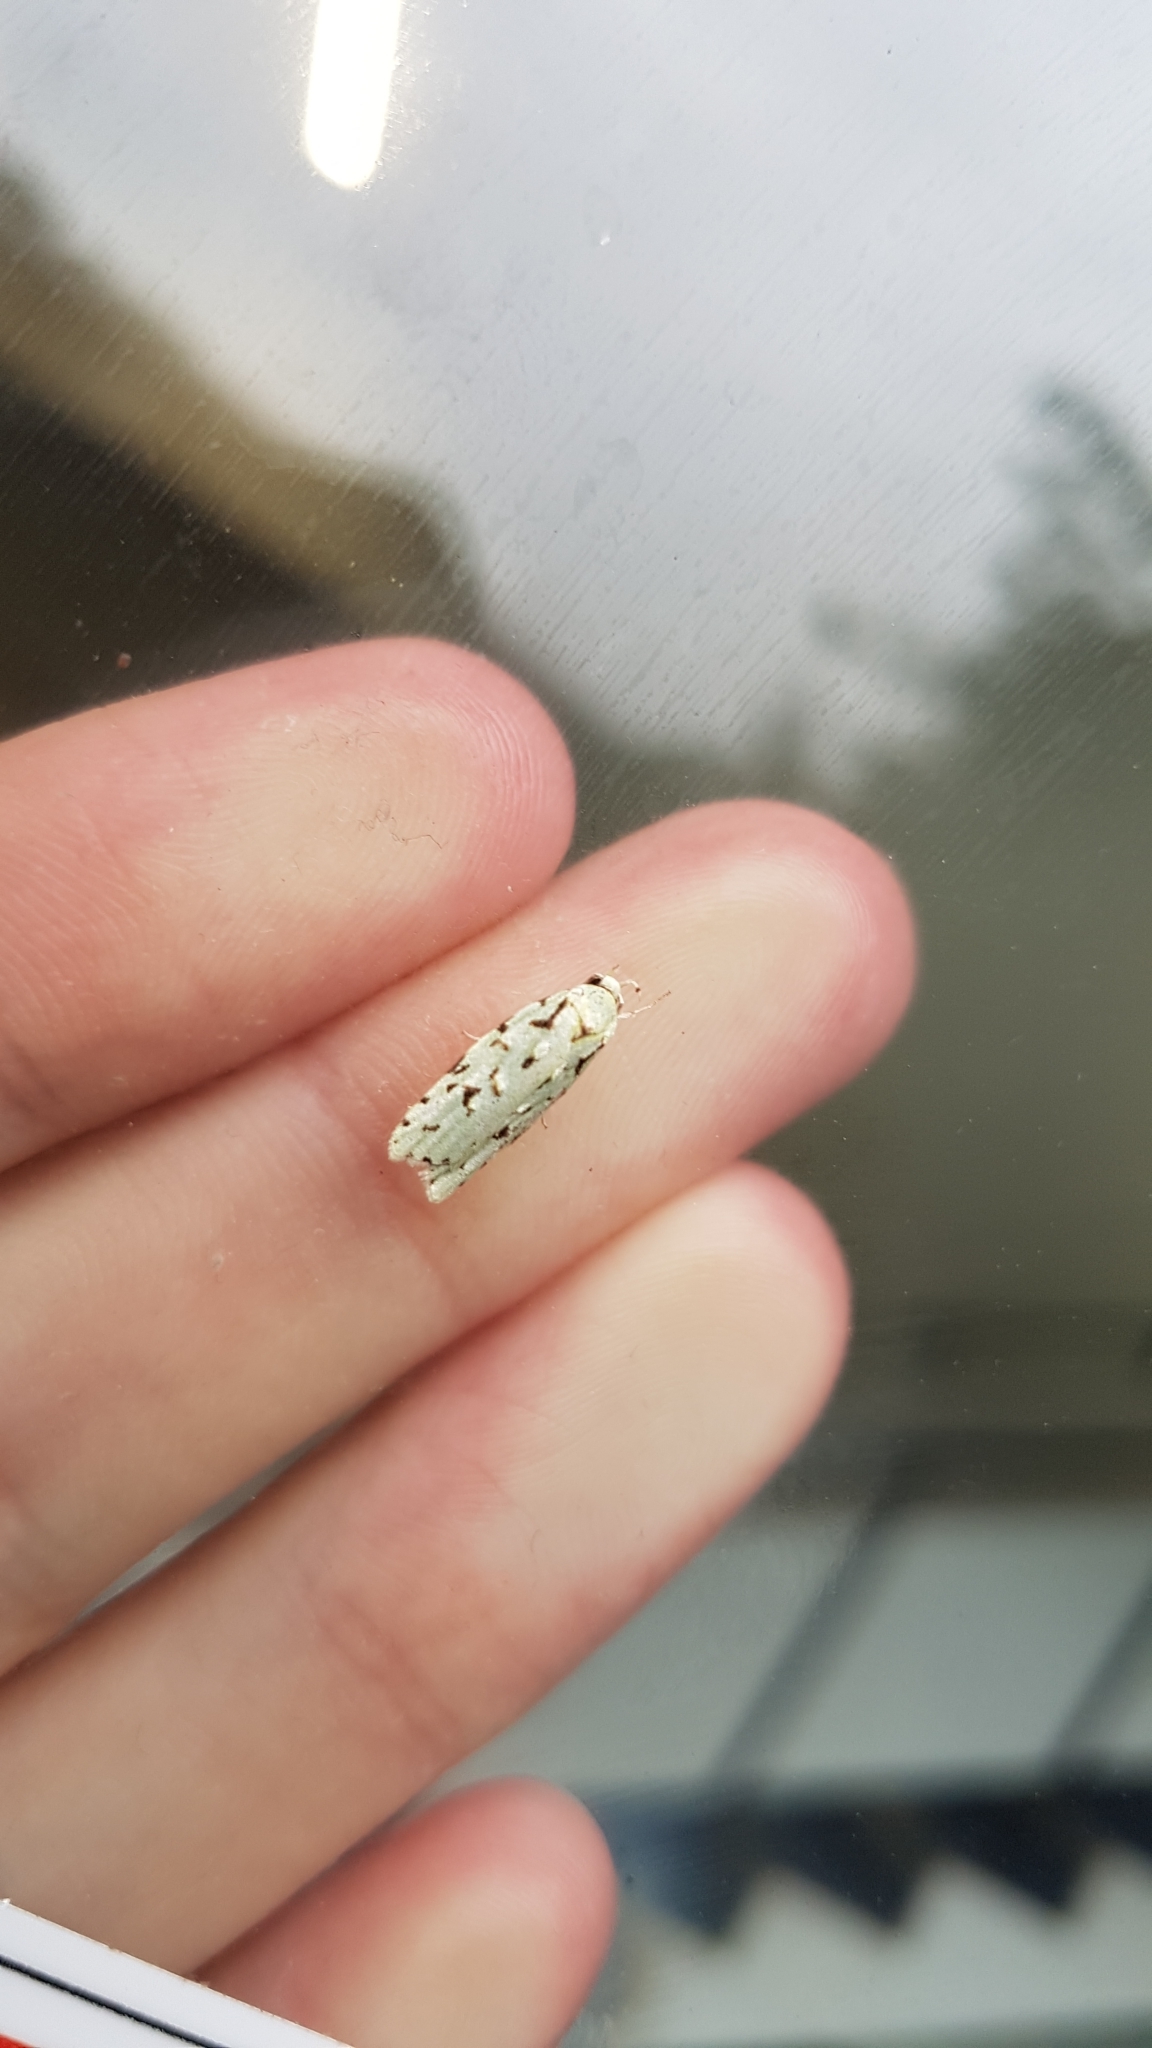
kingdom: Animalia
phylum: Arthropoda
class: Insecta
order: Lepidoptera
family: Oecophoridae
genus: Izatha
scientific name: Izatha hudsoni
